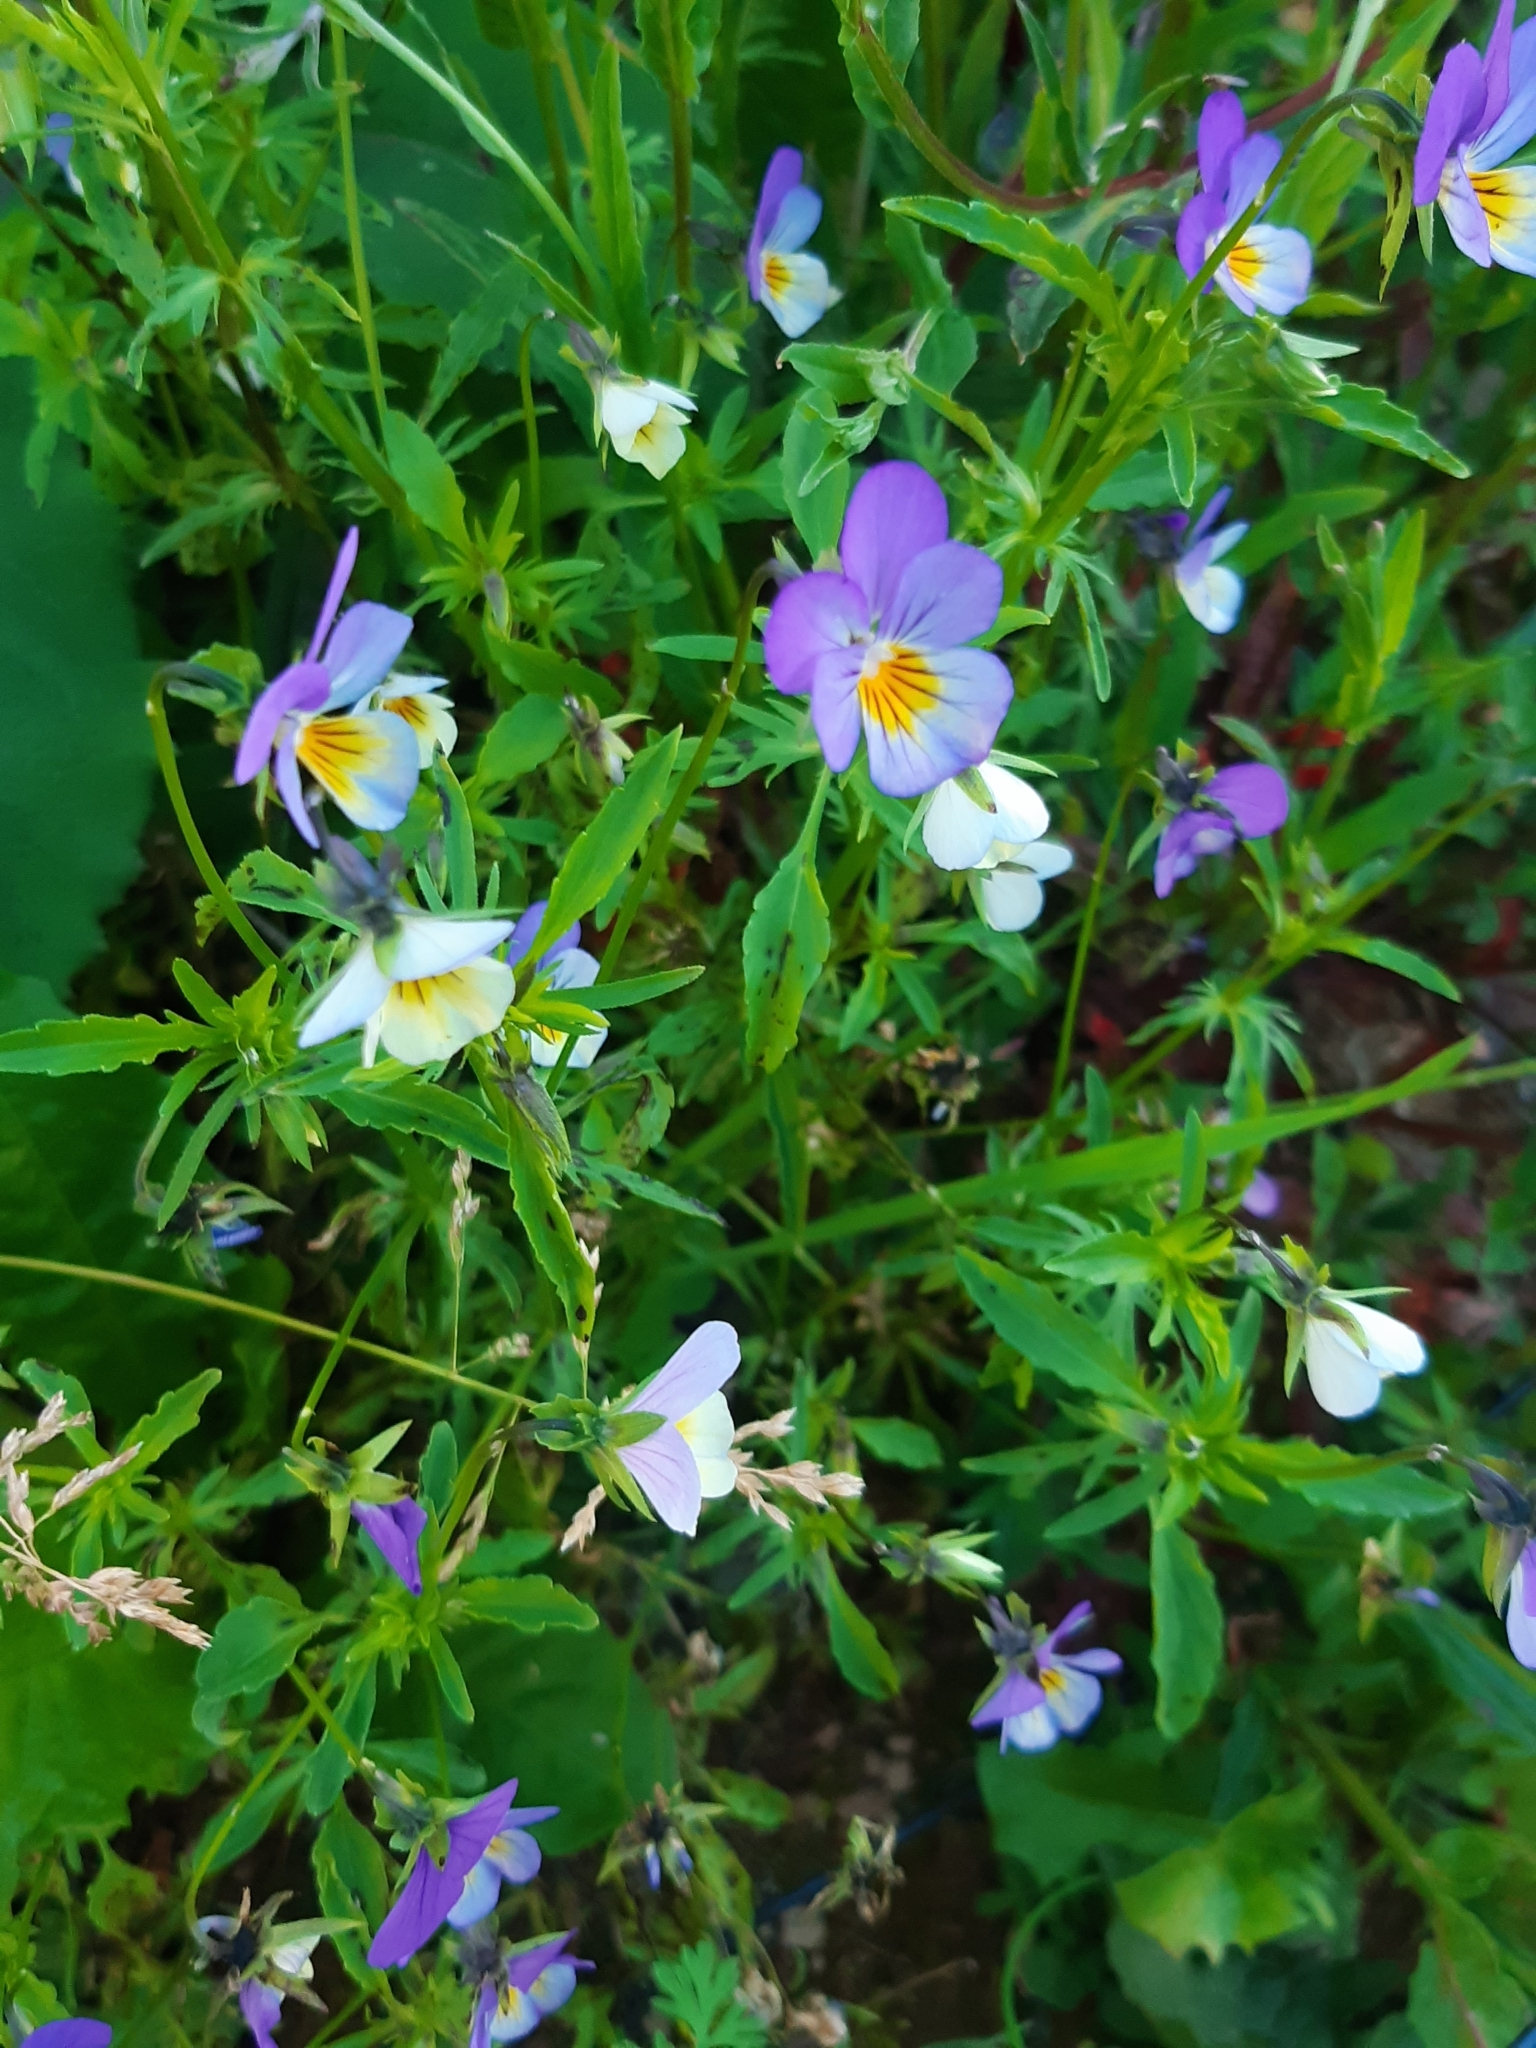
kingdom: Plantae
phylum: Tracheophyta
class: Magnoliopsida
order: Malpighiales
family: Violaceae
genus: Viola
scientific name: Viola tricolor
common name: Pansy
